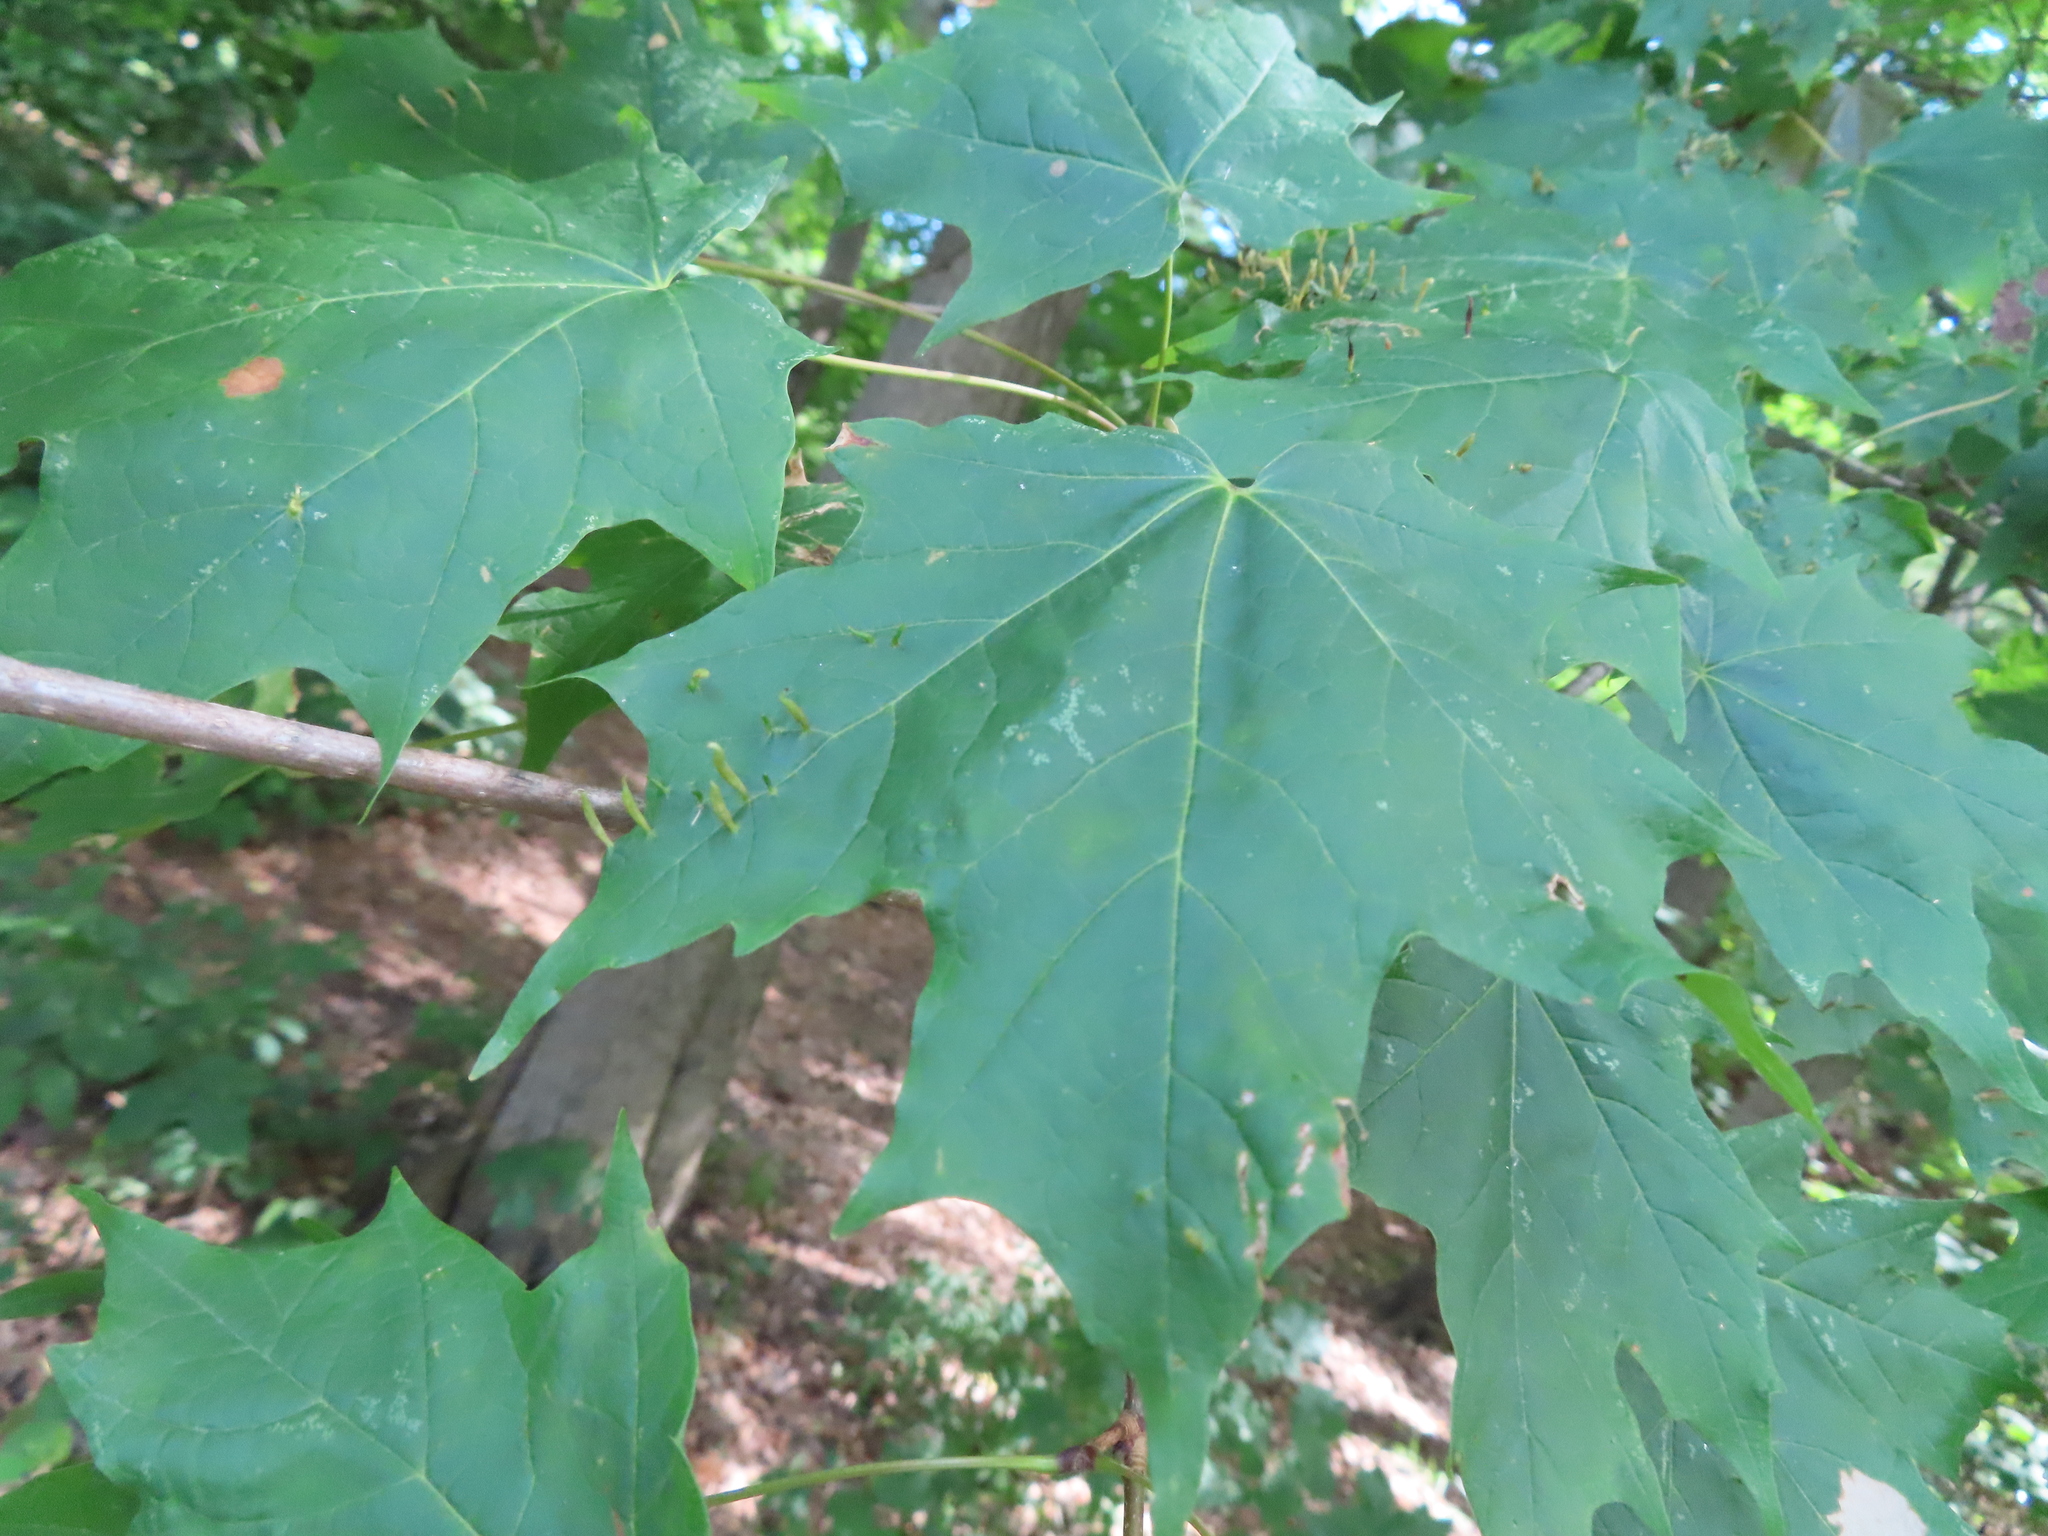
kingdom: Animalia
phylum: Arthropoda
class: Arachnida
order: Trombidiformes
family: Eriophyidae
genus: Vasates
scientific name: Vasates aceriscrumena
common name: Maple spindle gall mite
